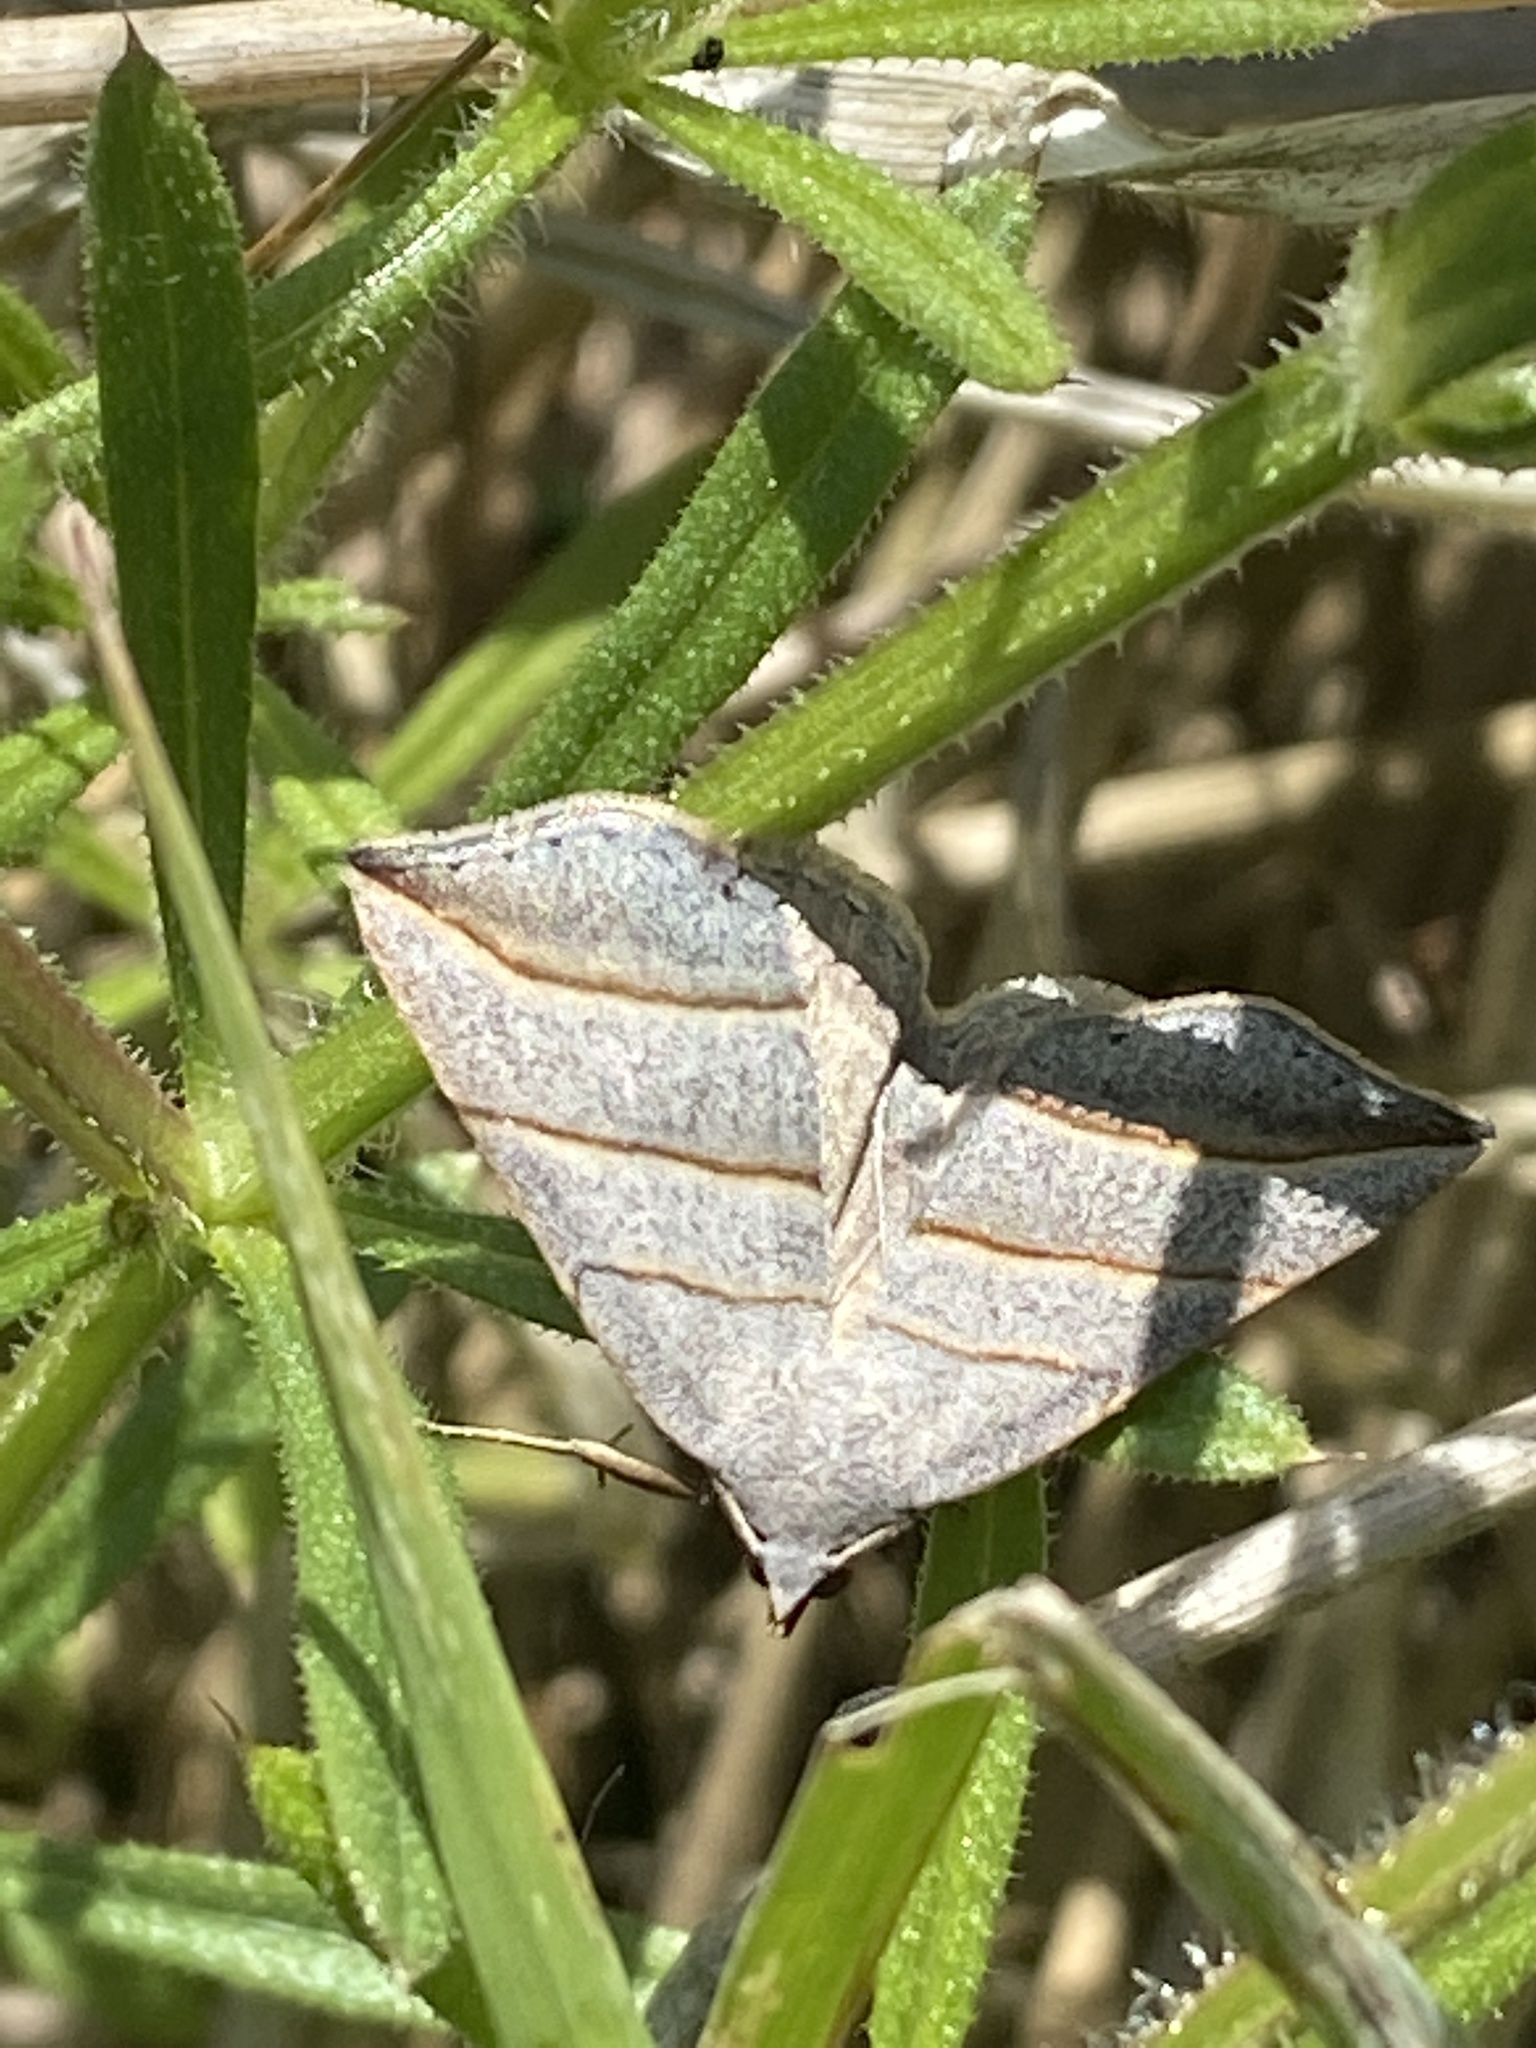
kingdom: Animalia
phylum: Arthropoda
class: Insecta
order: Lepidoptera
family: Erebidae
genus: Colobochyla
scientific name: Colobochyla salicalis
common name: Lesser belle
